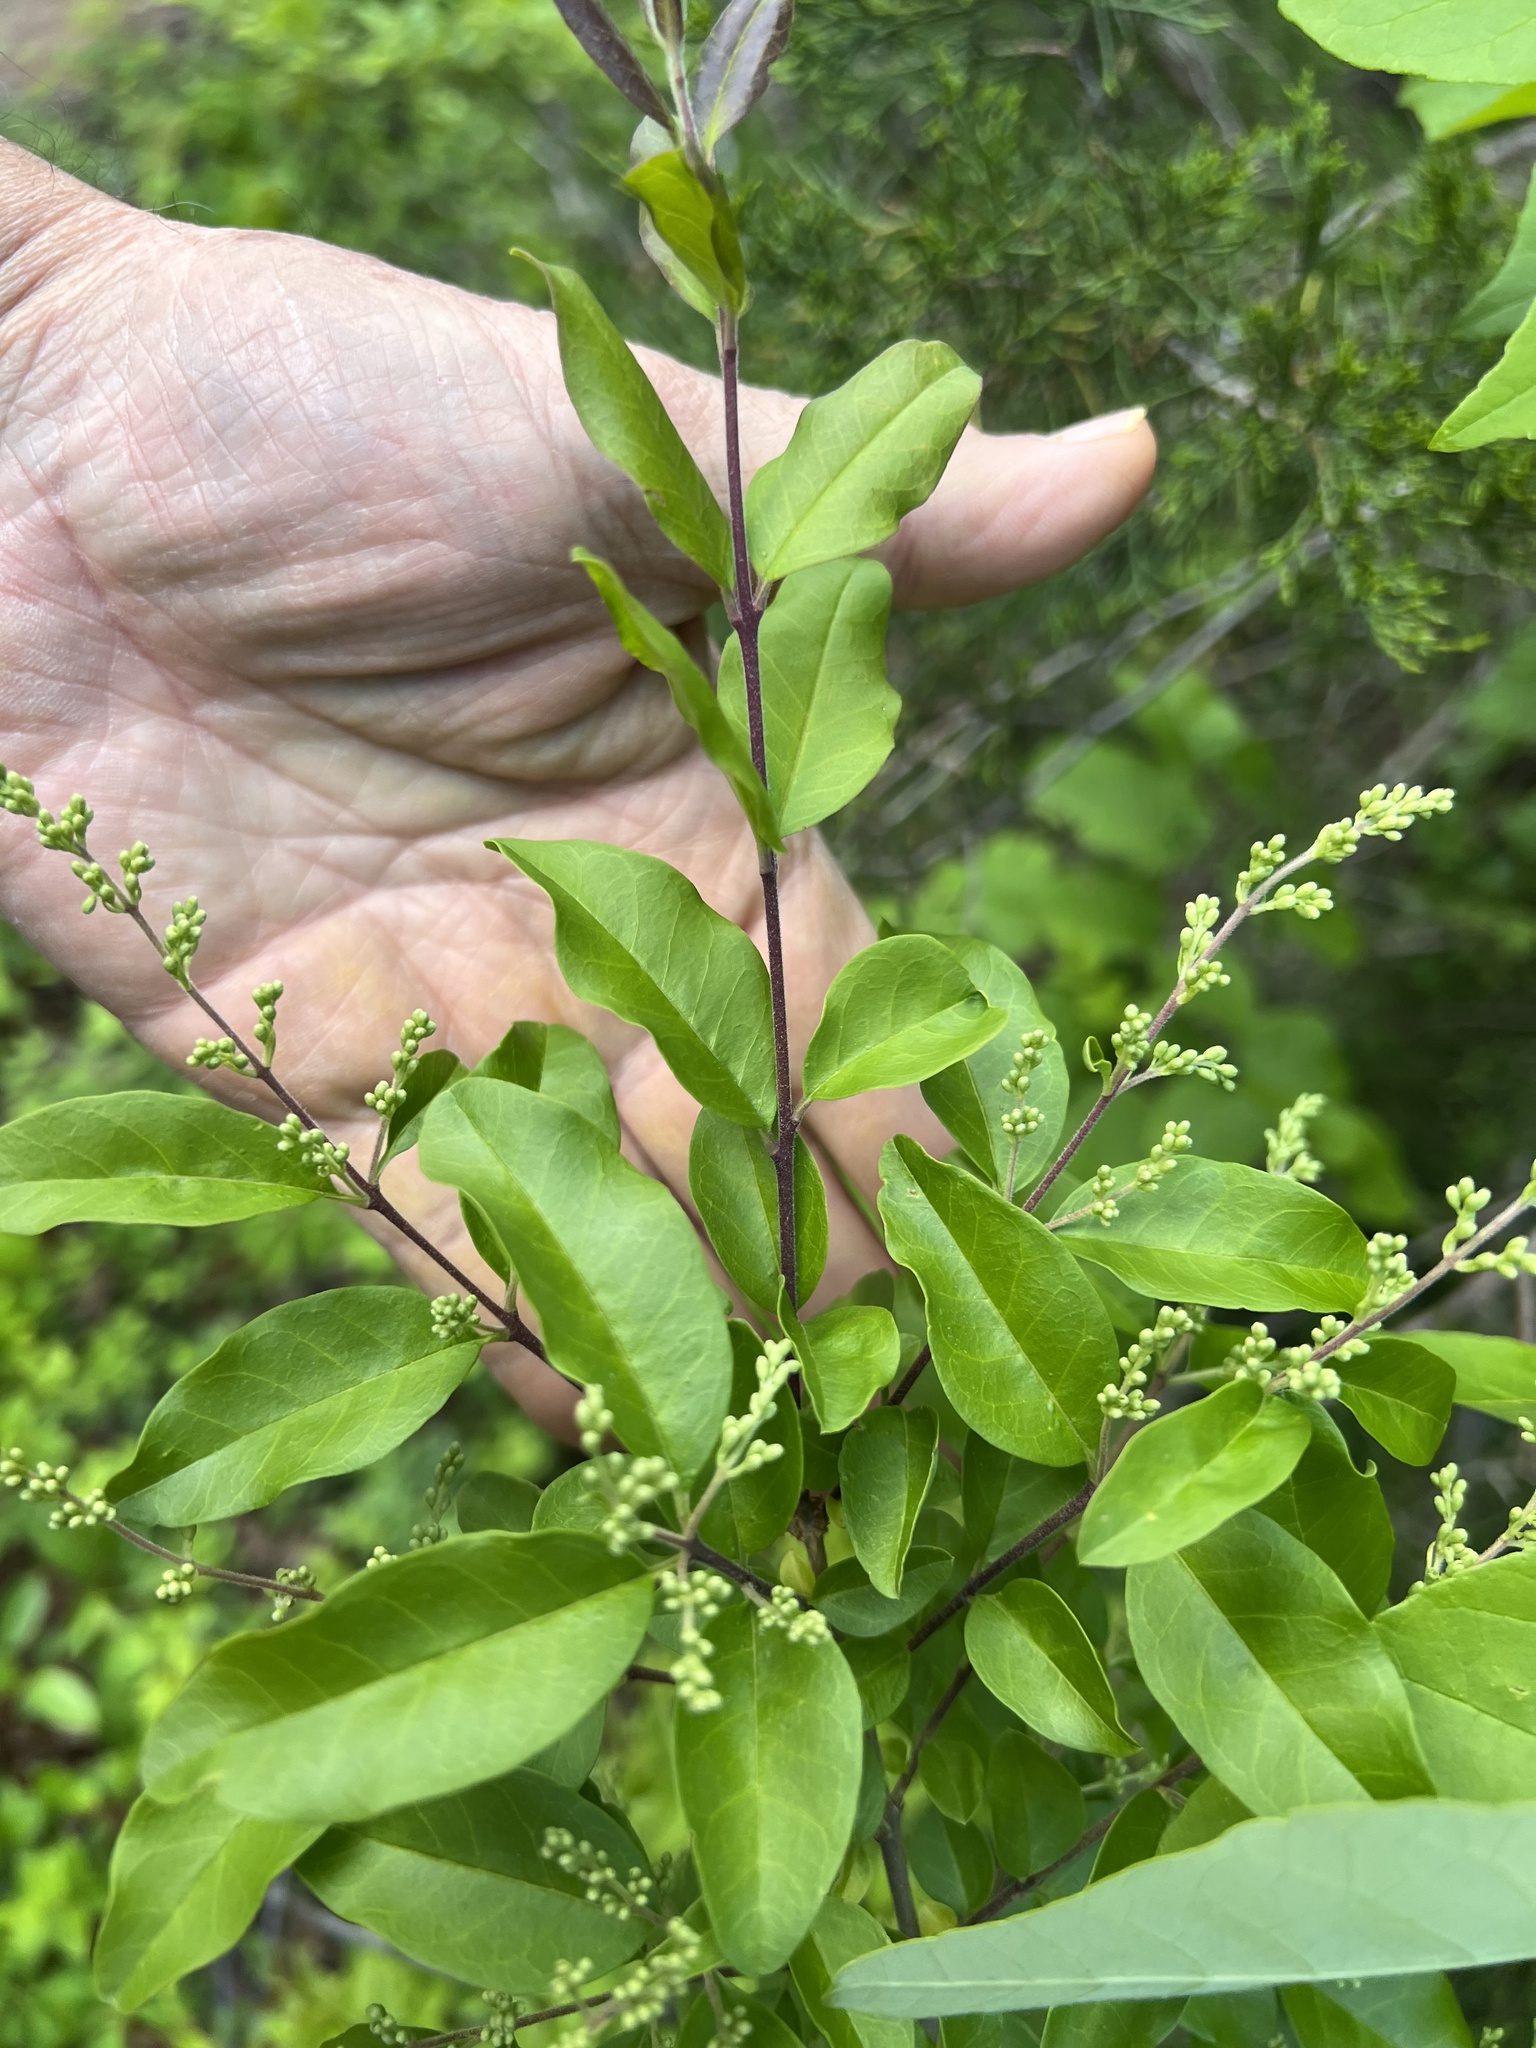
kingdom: Plantae
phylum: Tracheophyta
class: Magnoliopsida
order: Lamiales
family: Oleaceae
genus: Ligustrum
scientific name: Ligustrum sinense
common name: Chinese privet
